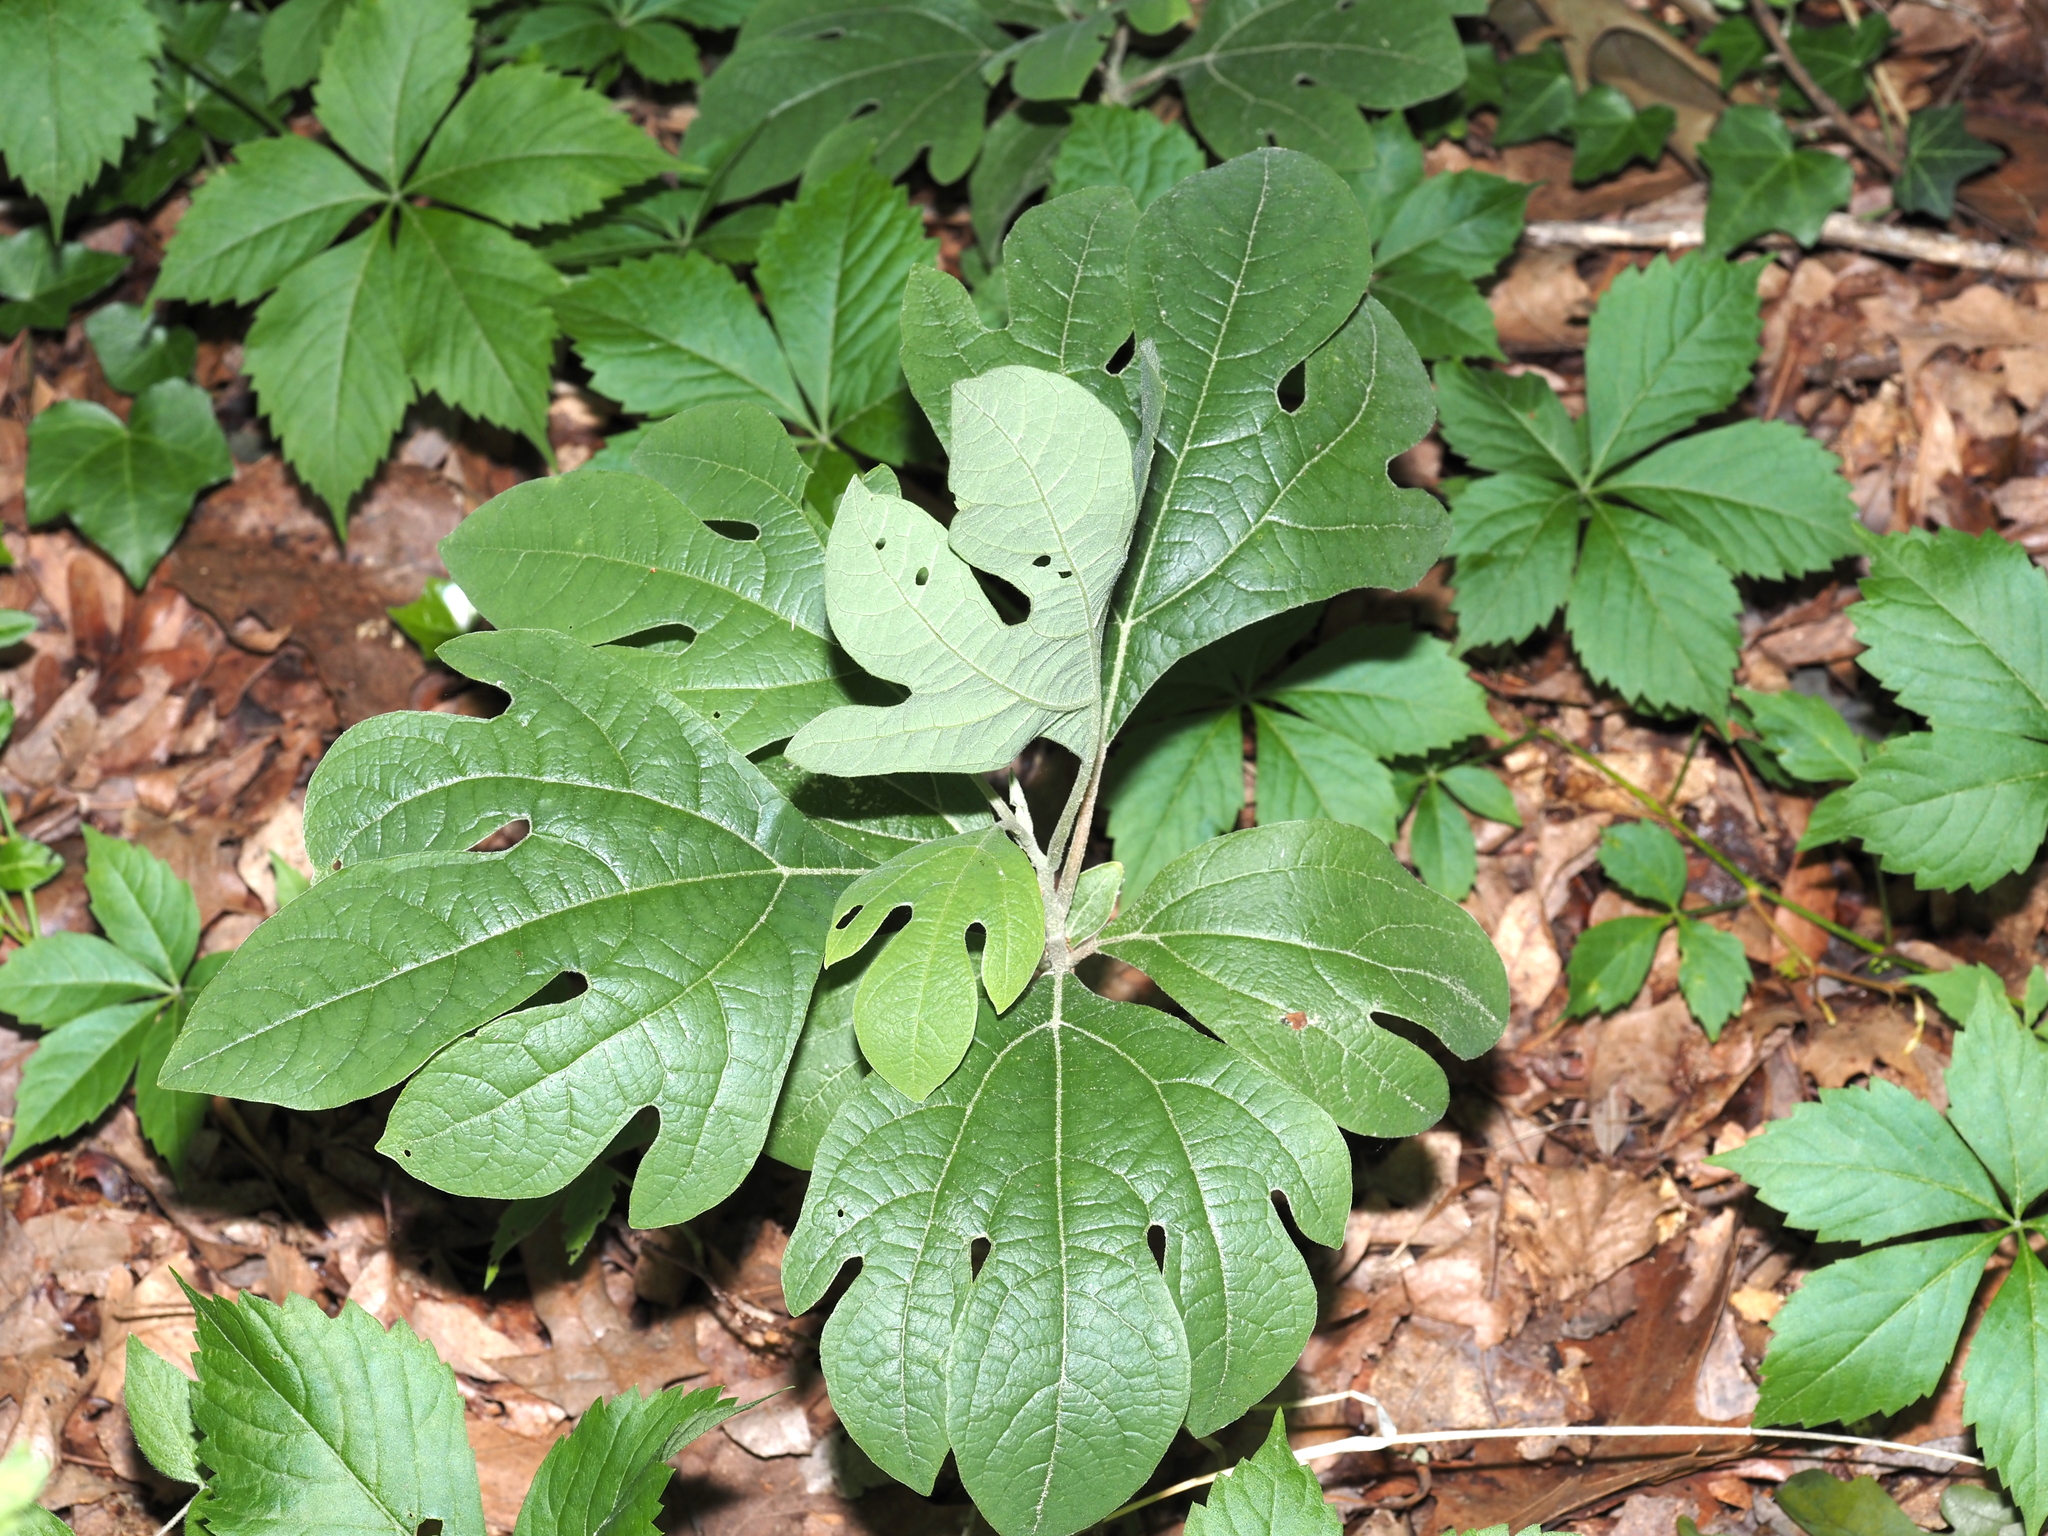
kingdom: Plantae
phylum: Tracheophyta
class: Magnoliopsida
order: Laurales
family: Lauraceae
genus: Sassafras
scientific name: Sassafras albidum
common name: Sassafras
